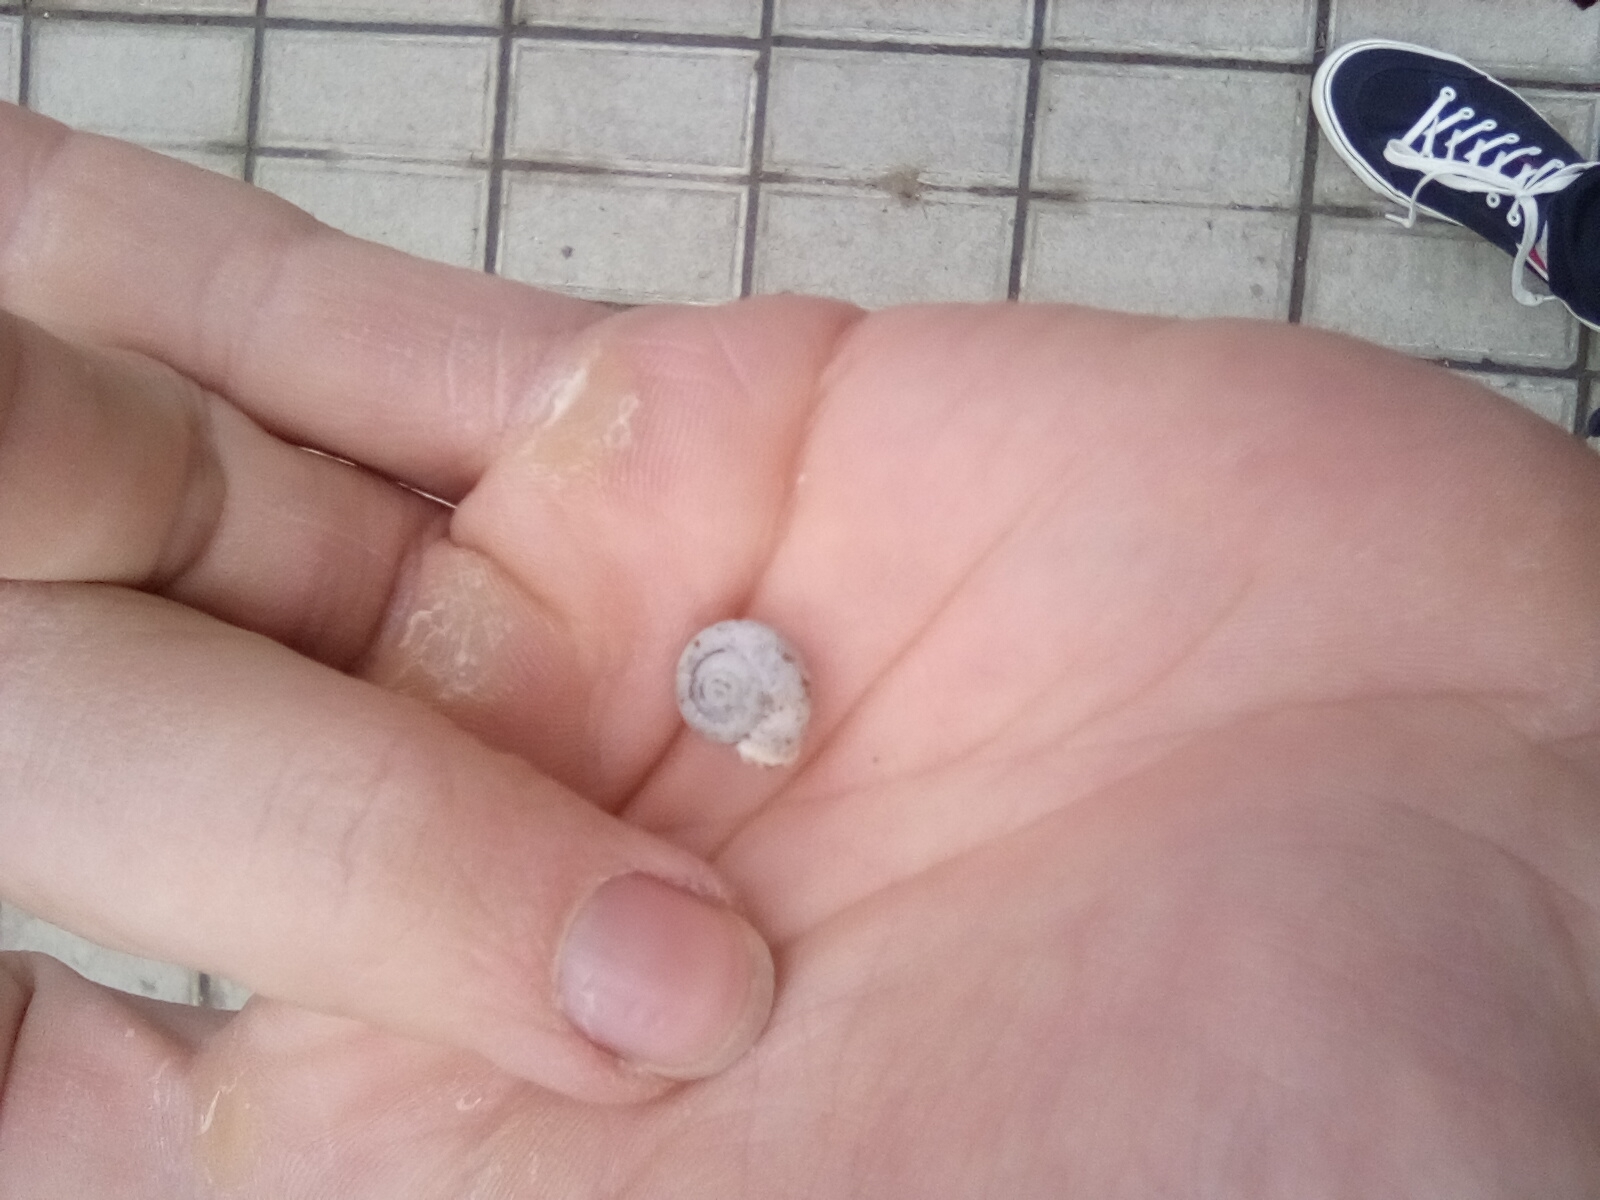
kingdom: Animalia
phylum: Mollusca
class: Gastropoda
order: Stylommatophora
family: Hygromiidae
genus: Monacha
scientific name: Monacha cartusiana
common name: Carthusian snail
